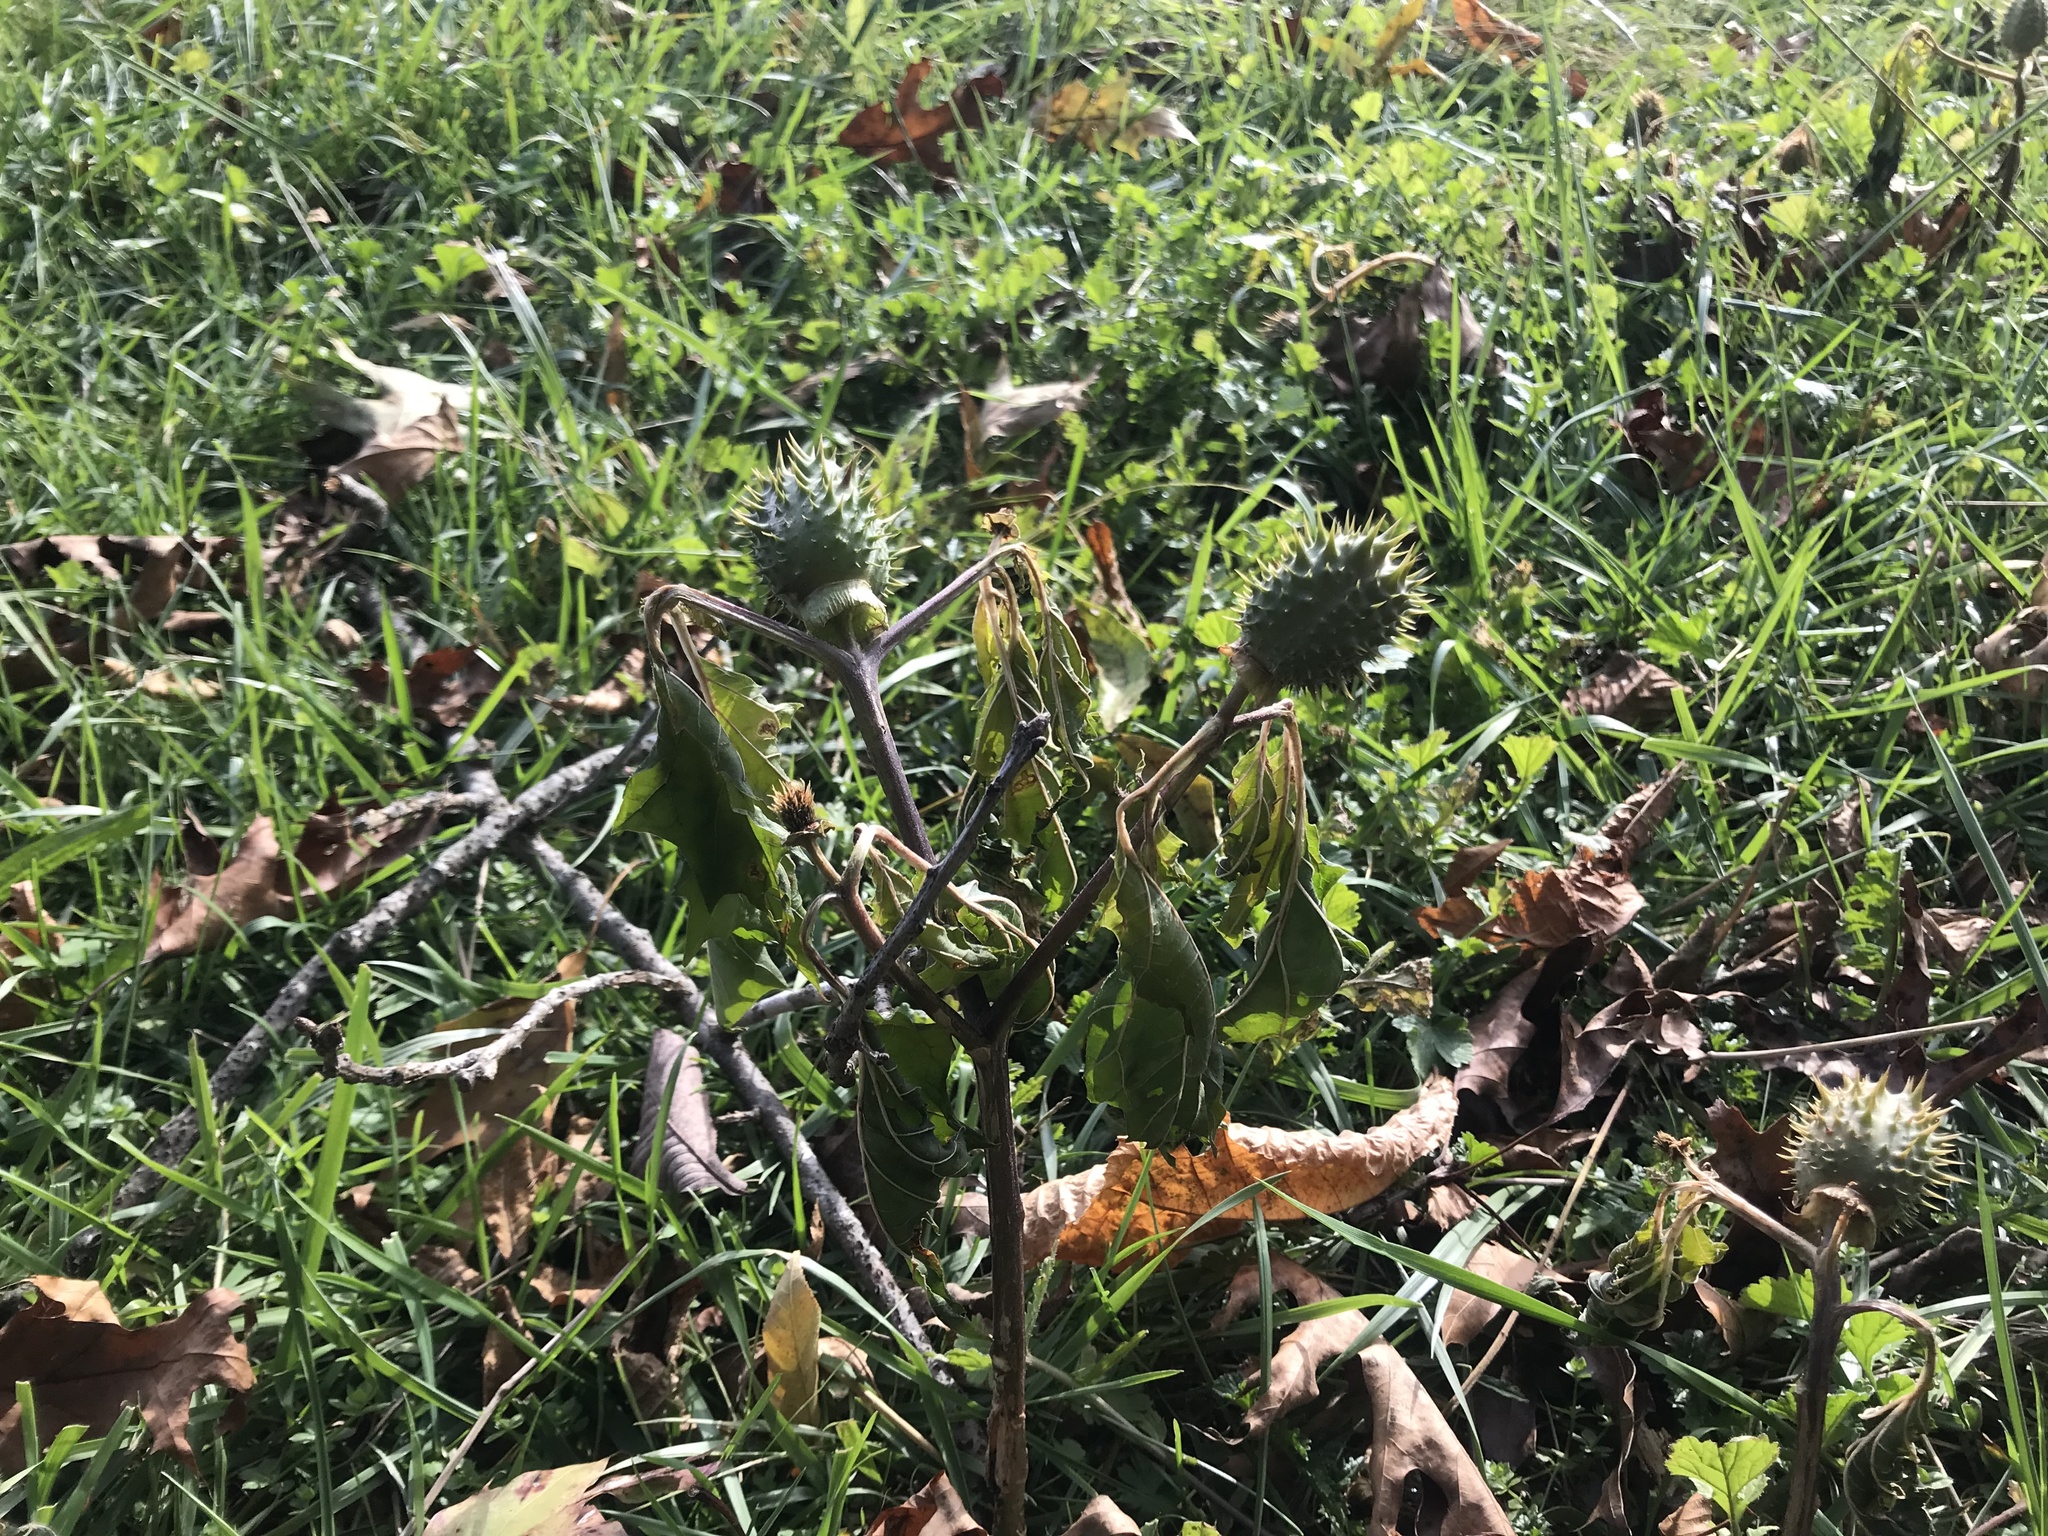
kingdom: Plantae
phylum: Tracheophyta
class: Magnoliopsida
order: Solanales
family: Solanaceae
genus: Datura
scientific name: Datura stramonium
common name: Thorn-apple
